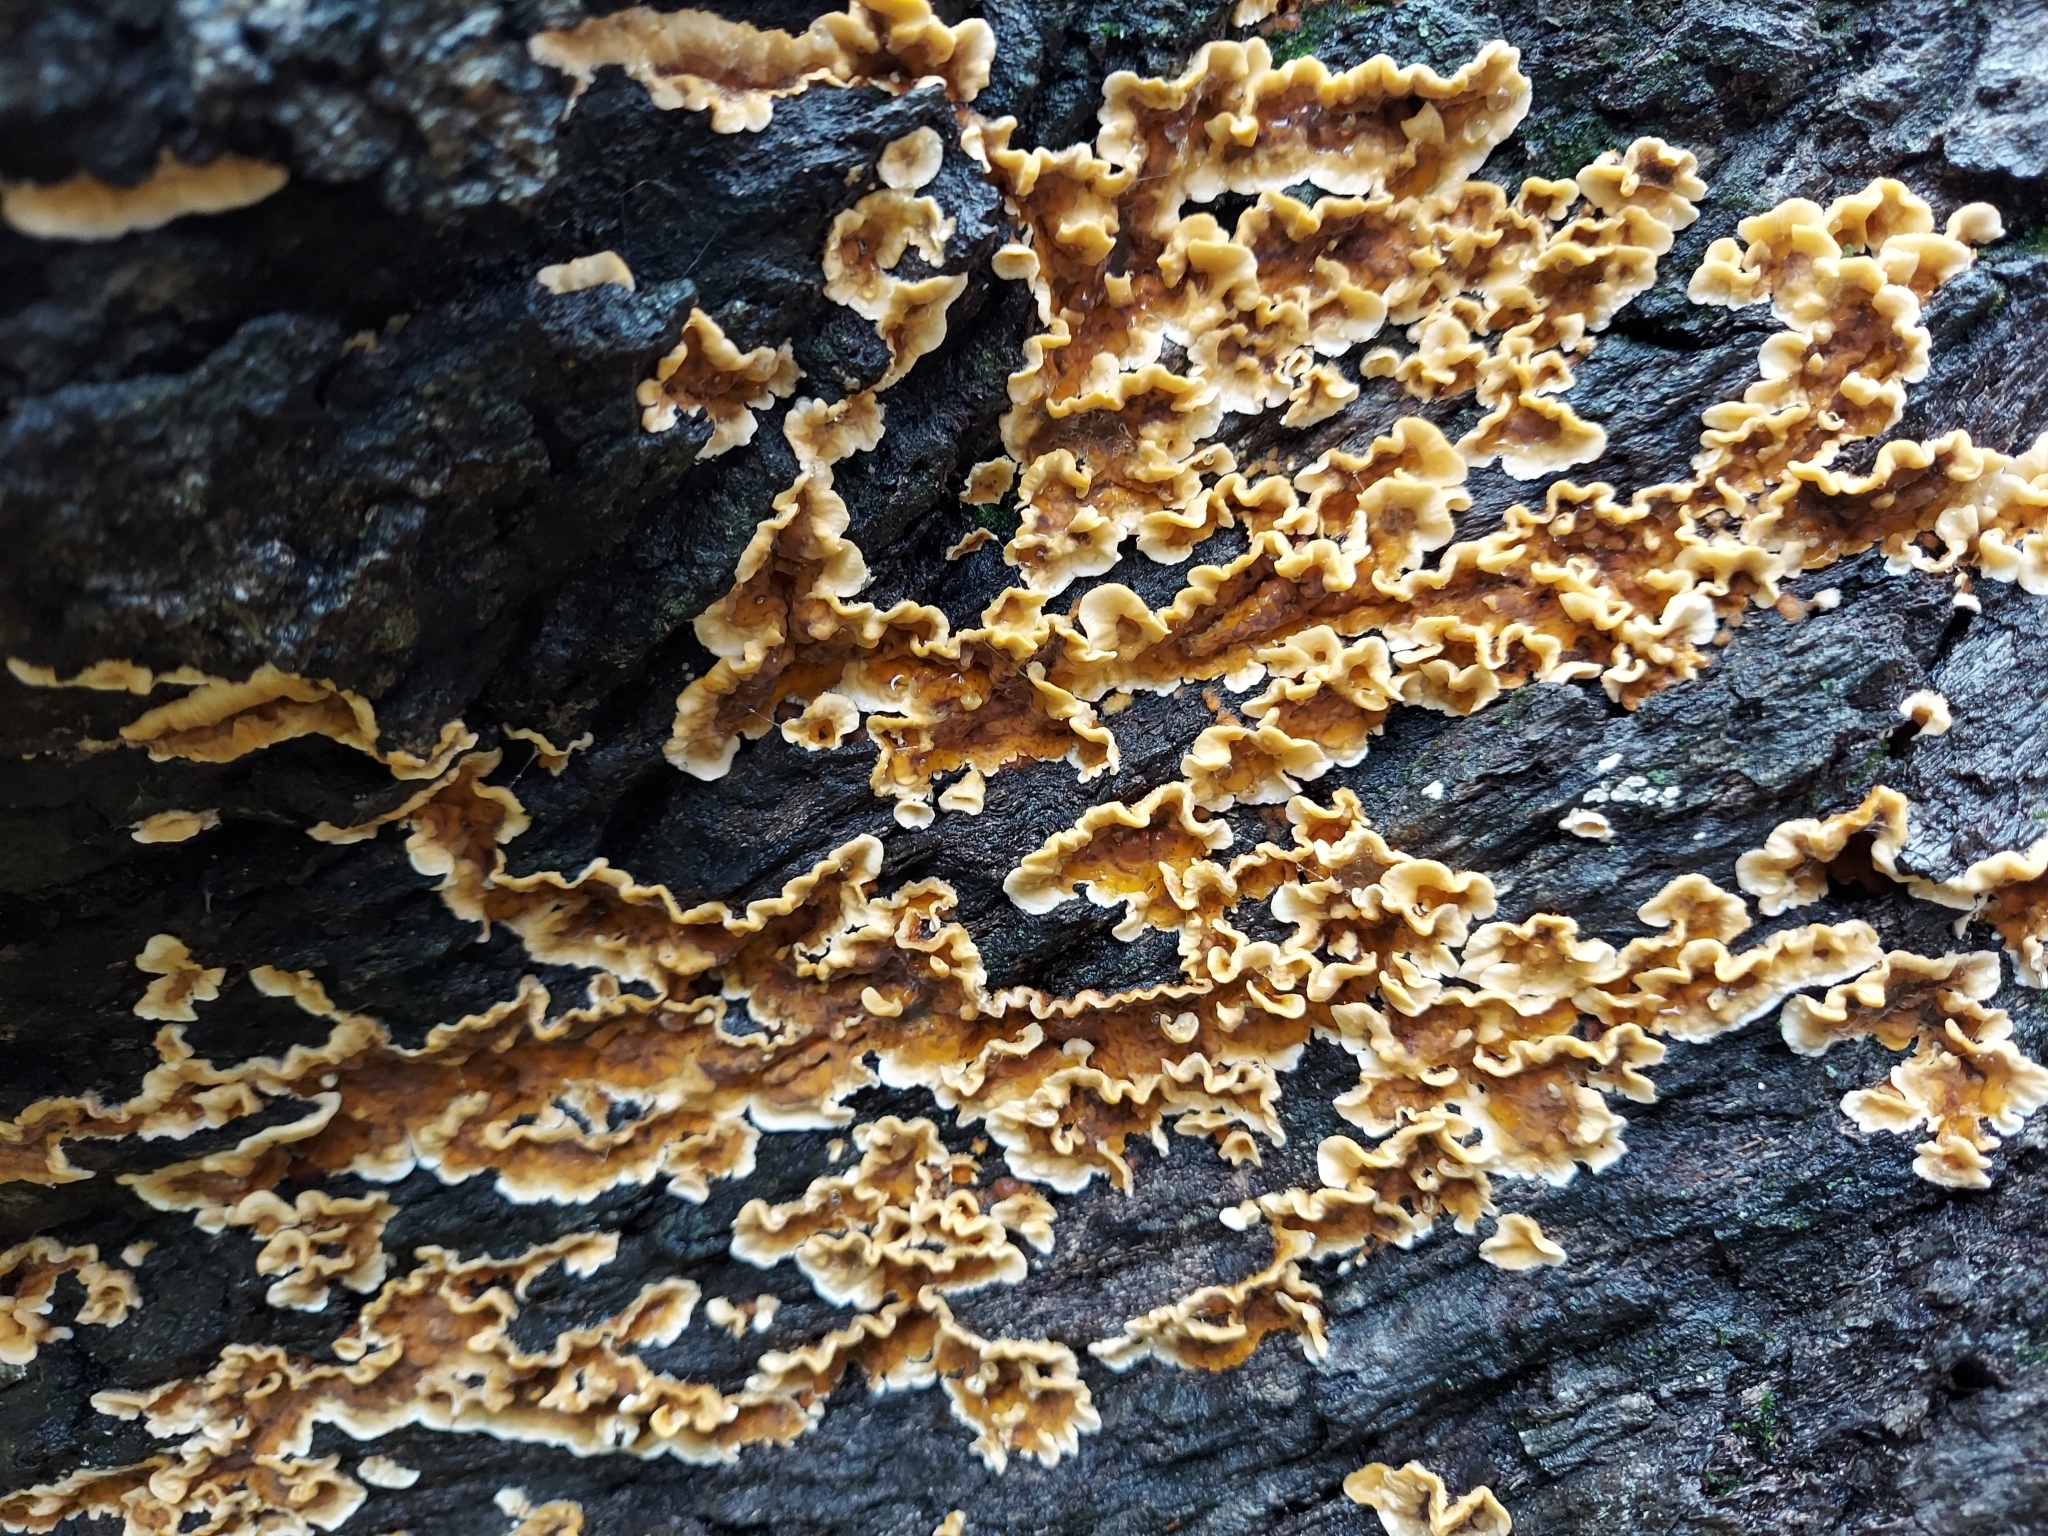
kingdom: Fungi
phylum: Basidiomycota
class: Agaricomycetes
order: Russulales
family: Stereaceae
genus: Stereum
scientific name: Stereum complicatum
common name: Crowded parchment
